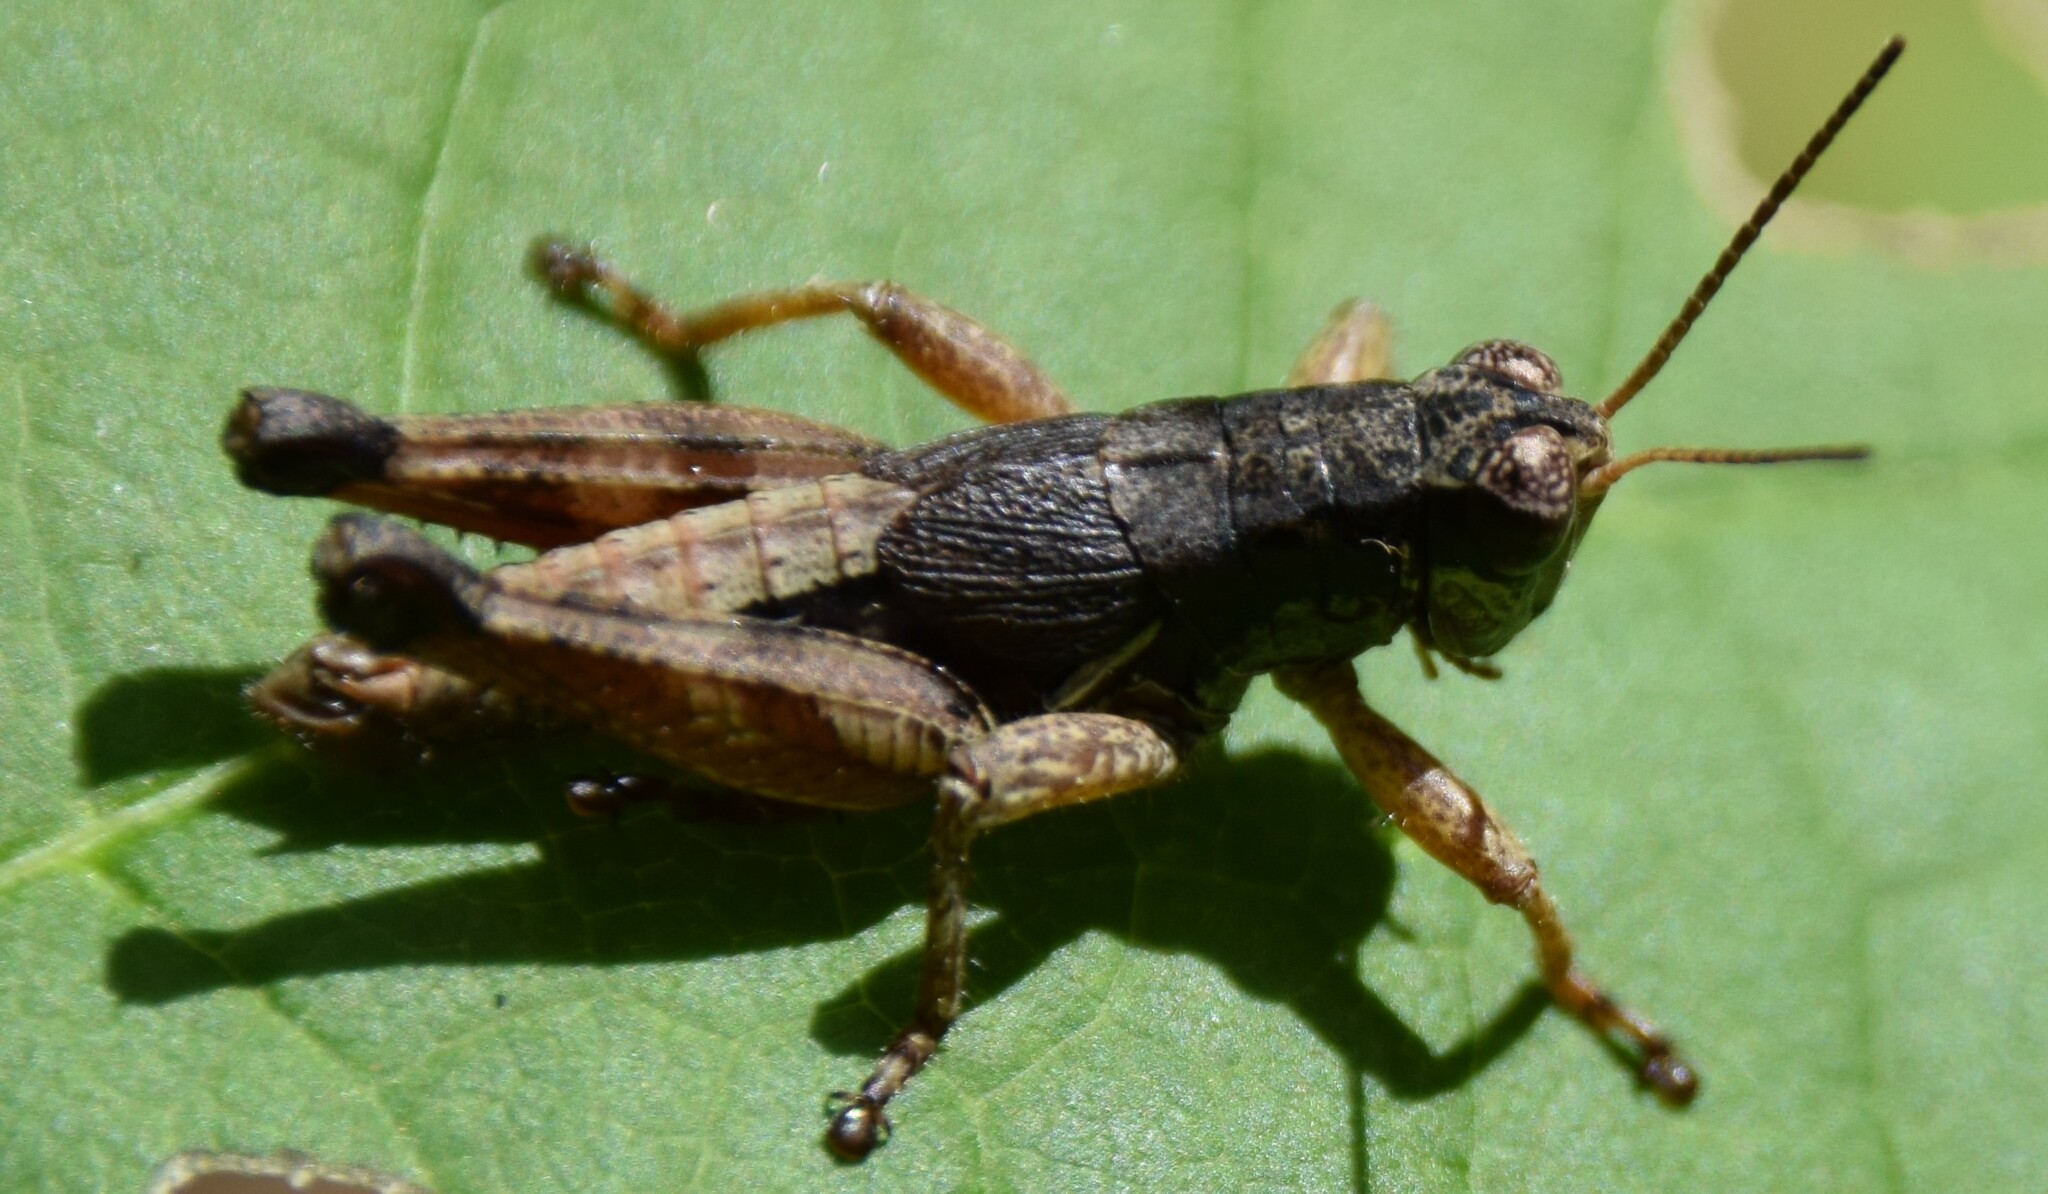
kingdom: Animalia
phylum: Arthropoda
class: Insecta
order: Orthoptera
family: Acrididae
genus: Melanoplus
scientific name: Melanoplus islandicus
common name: Island locust
